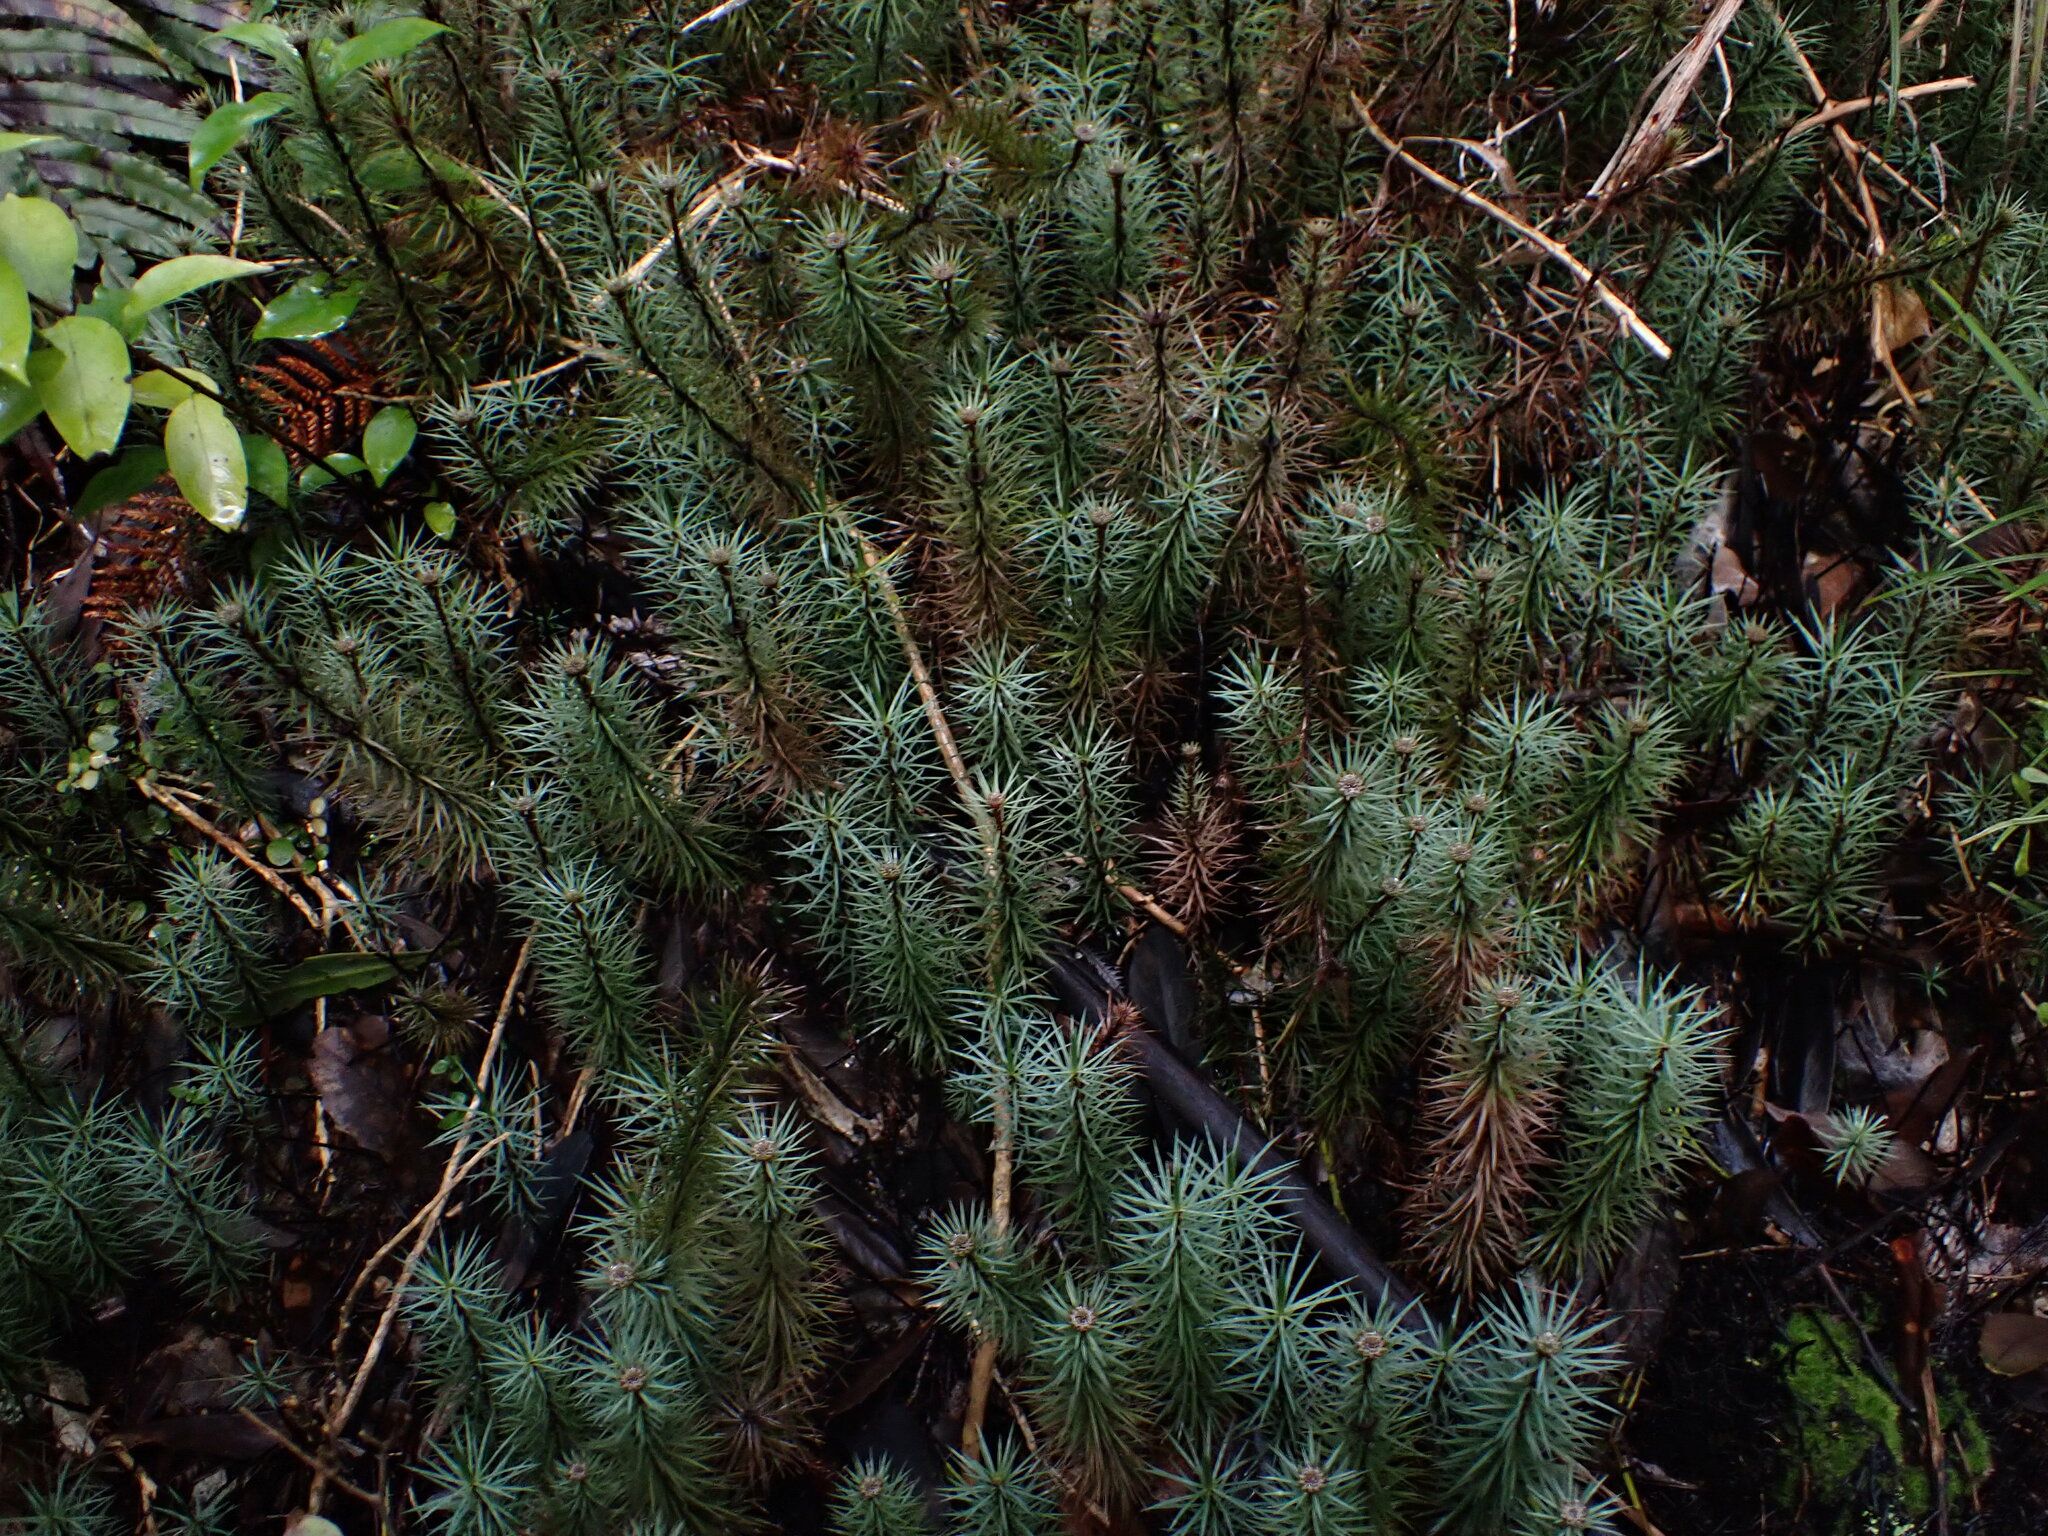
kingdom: Plantae
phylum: Bryophyta
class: Polytrichopsida
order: Polytrichales
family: Polytrichaceae
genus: Dawsonia
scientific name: Dawsonia superba
